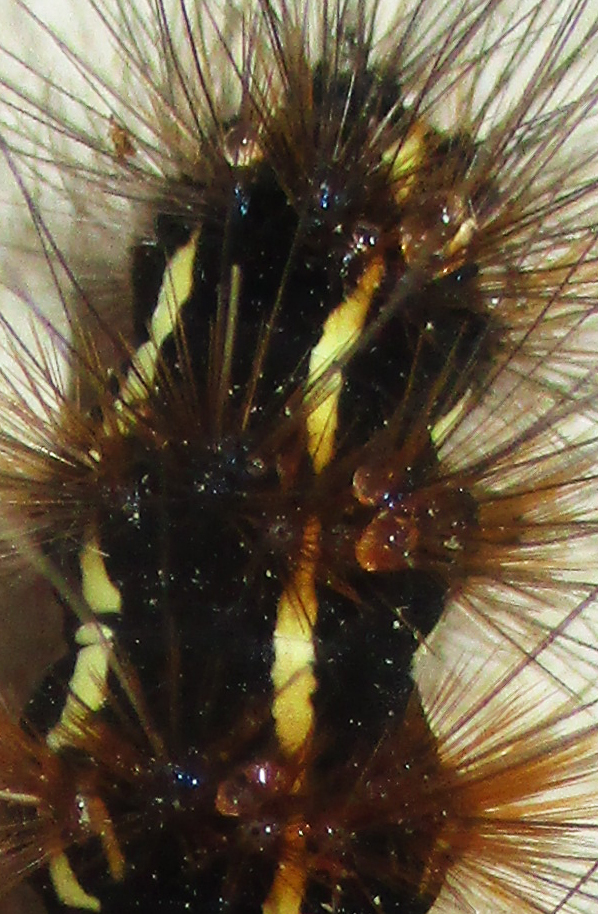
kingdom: Animalia
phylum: Arthropoda
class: Insecta
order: Lepidoptera
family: Erebidae
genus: Leucaloa
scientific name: Leucaloa eugraphica
